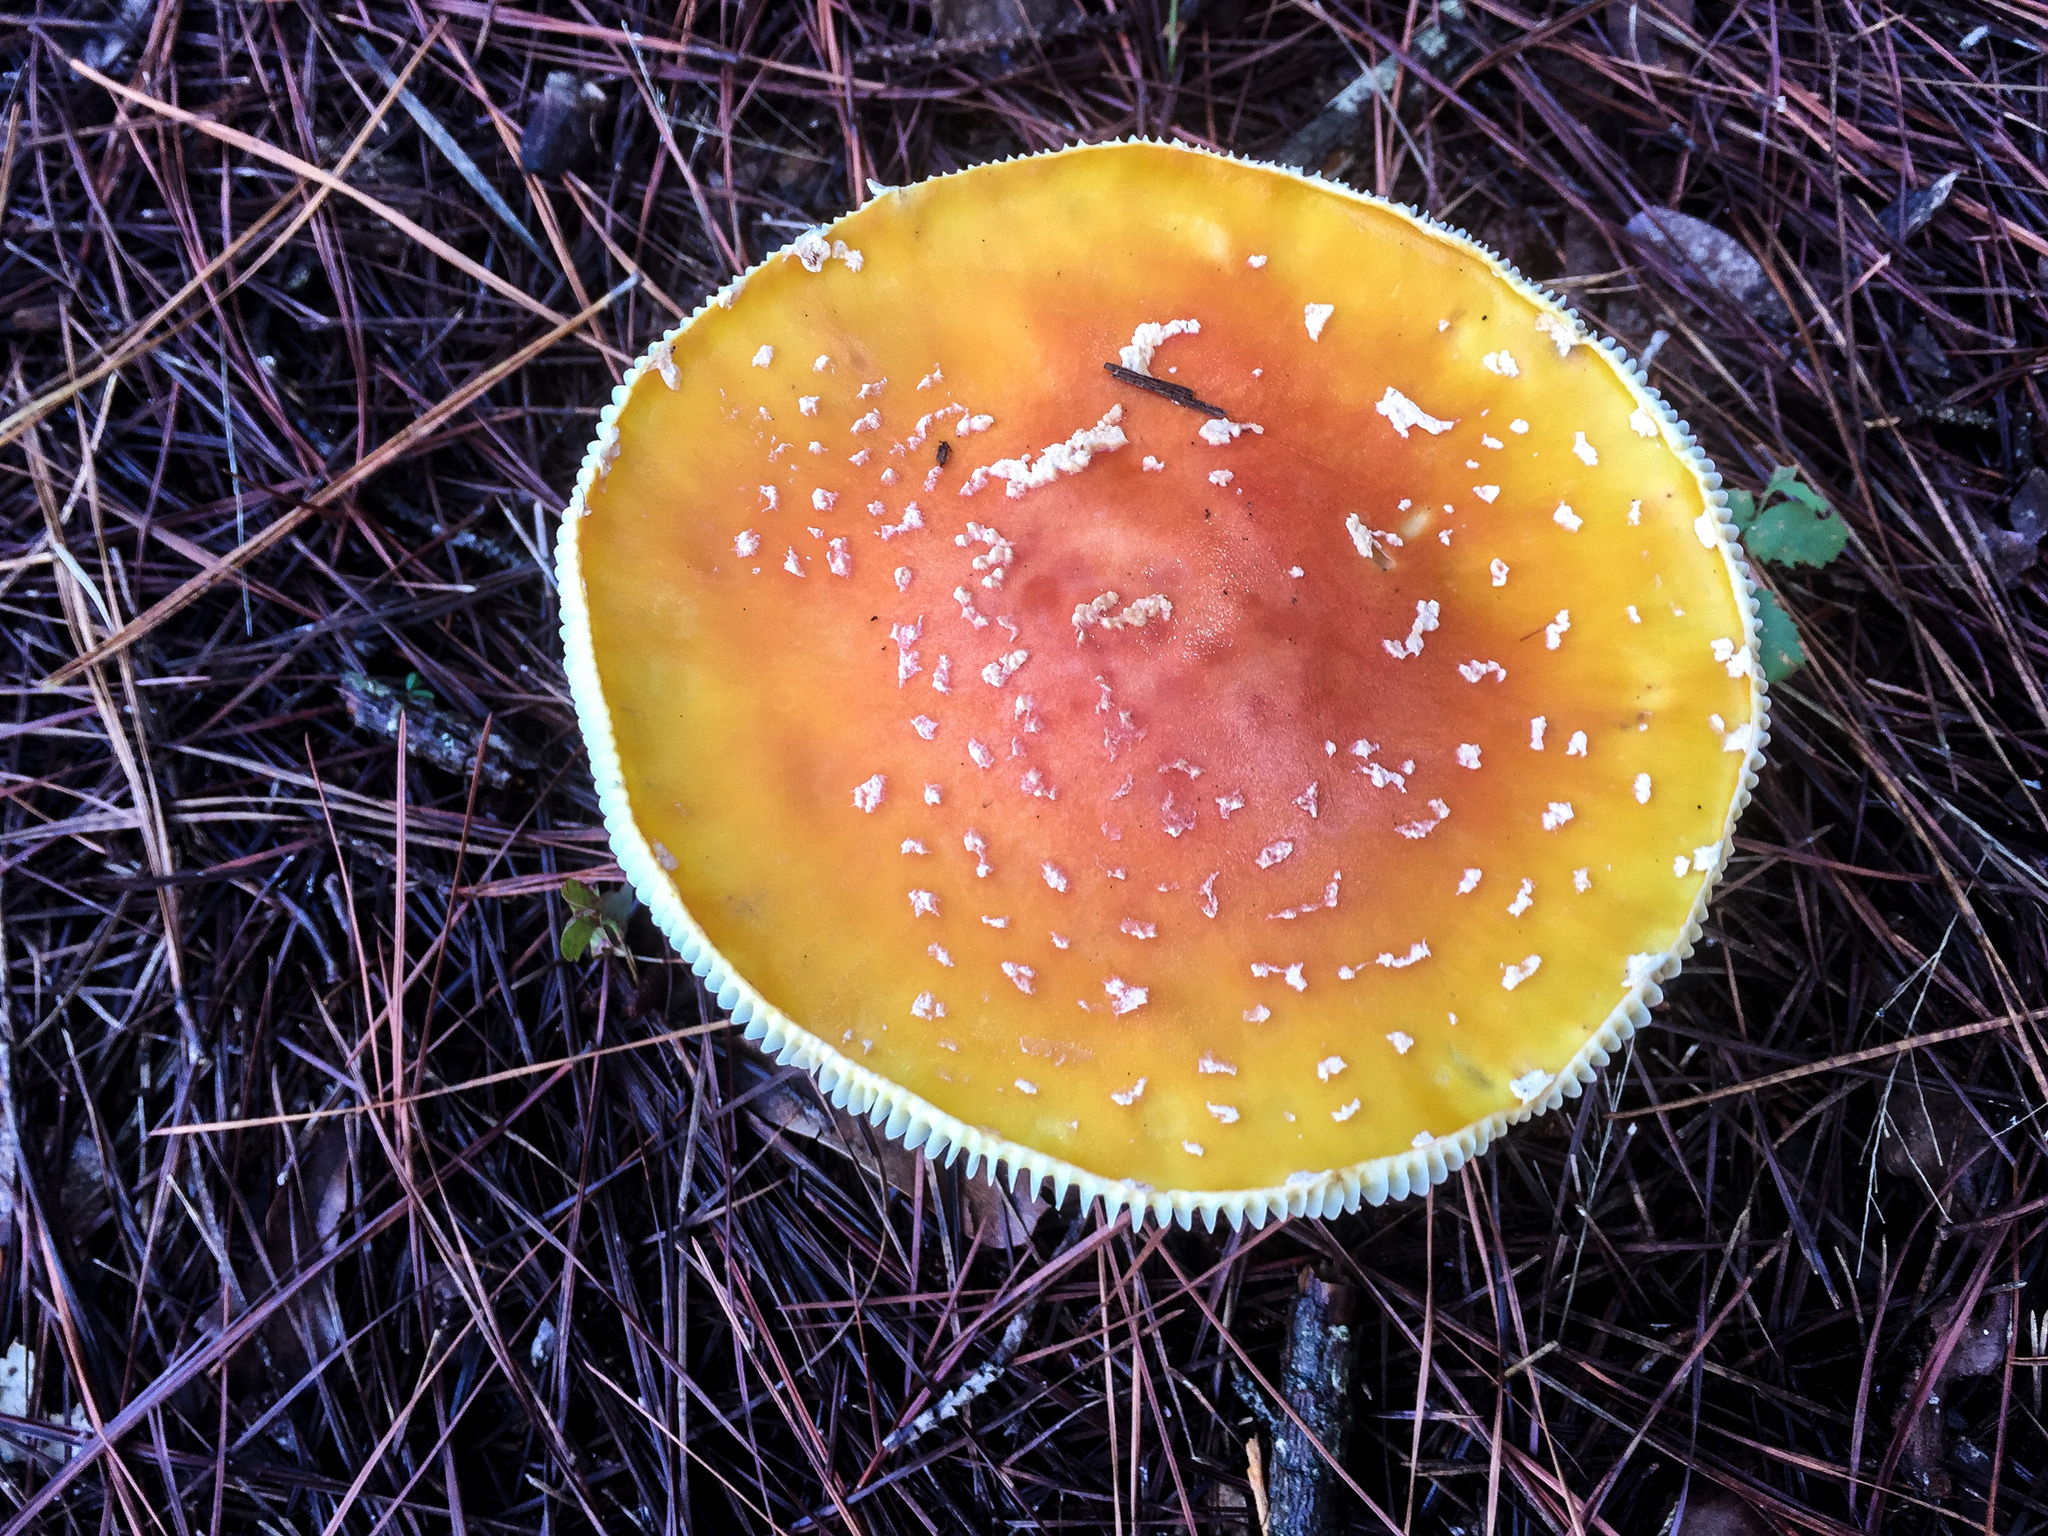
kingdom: Fungi
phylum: Basidiomycota
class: Agaricomycetes
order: Agaricales
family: Amanitaceae
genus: Amanita
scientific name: Amanita persicina
